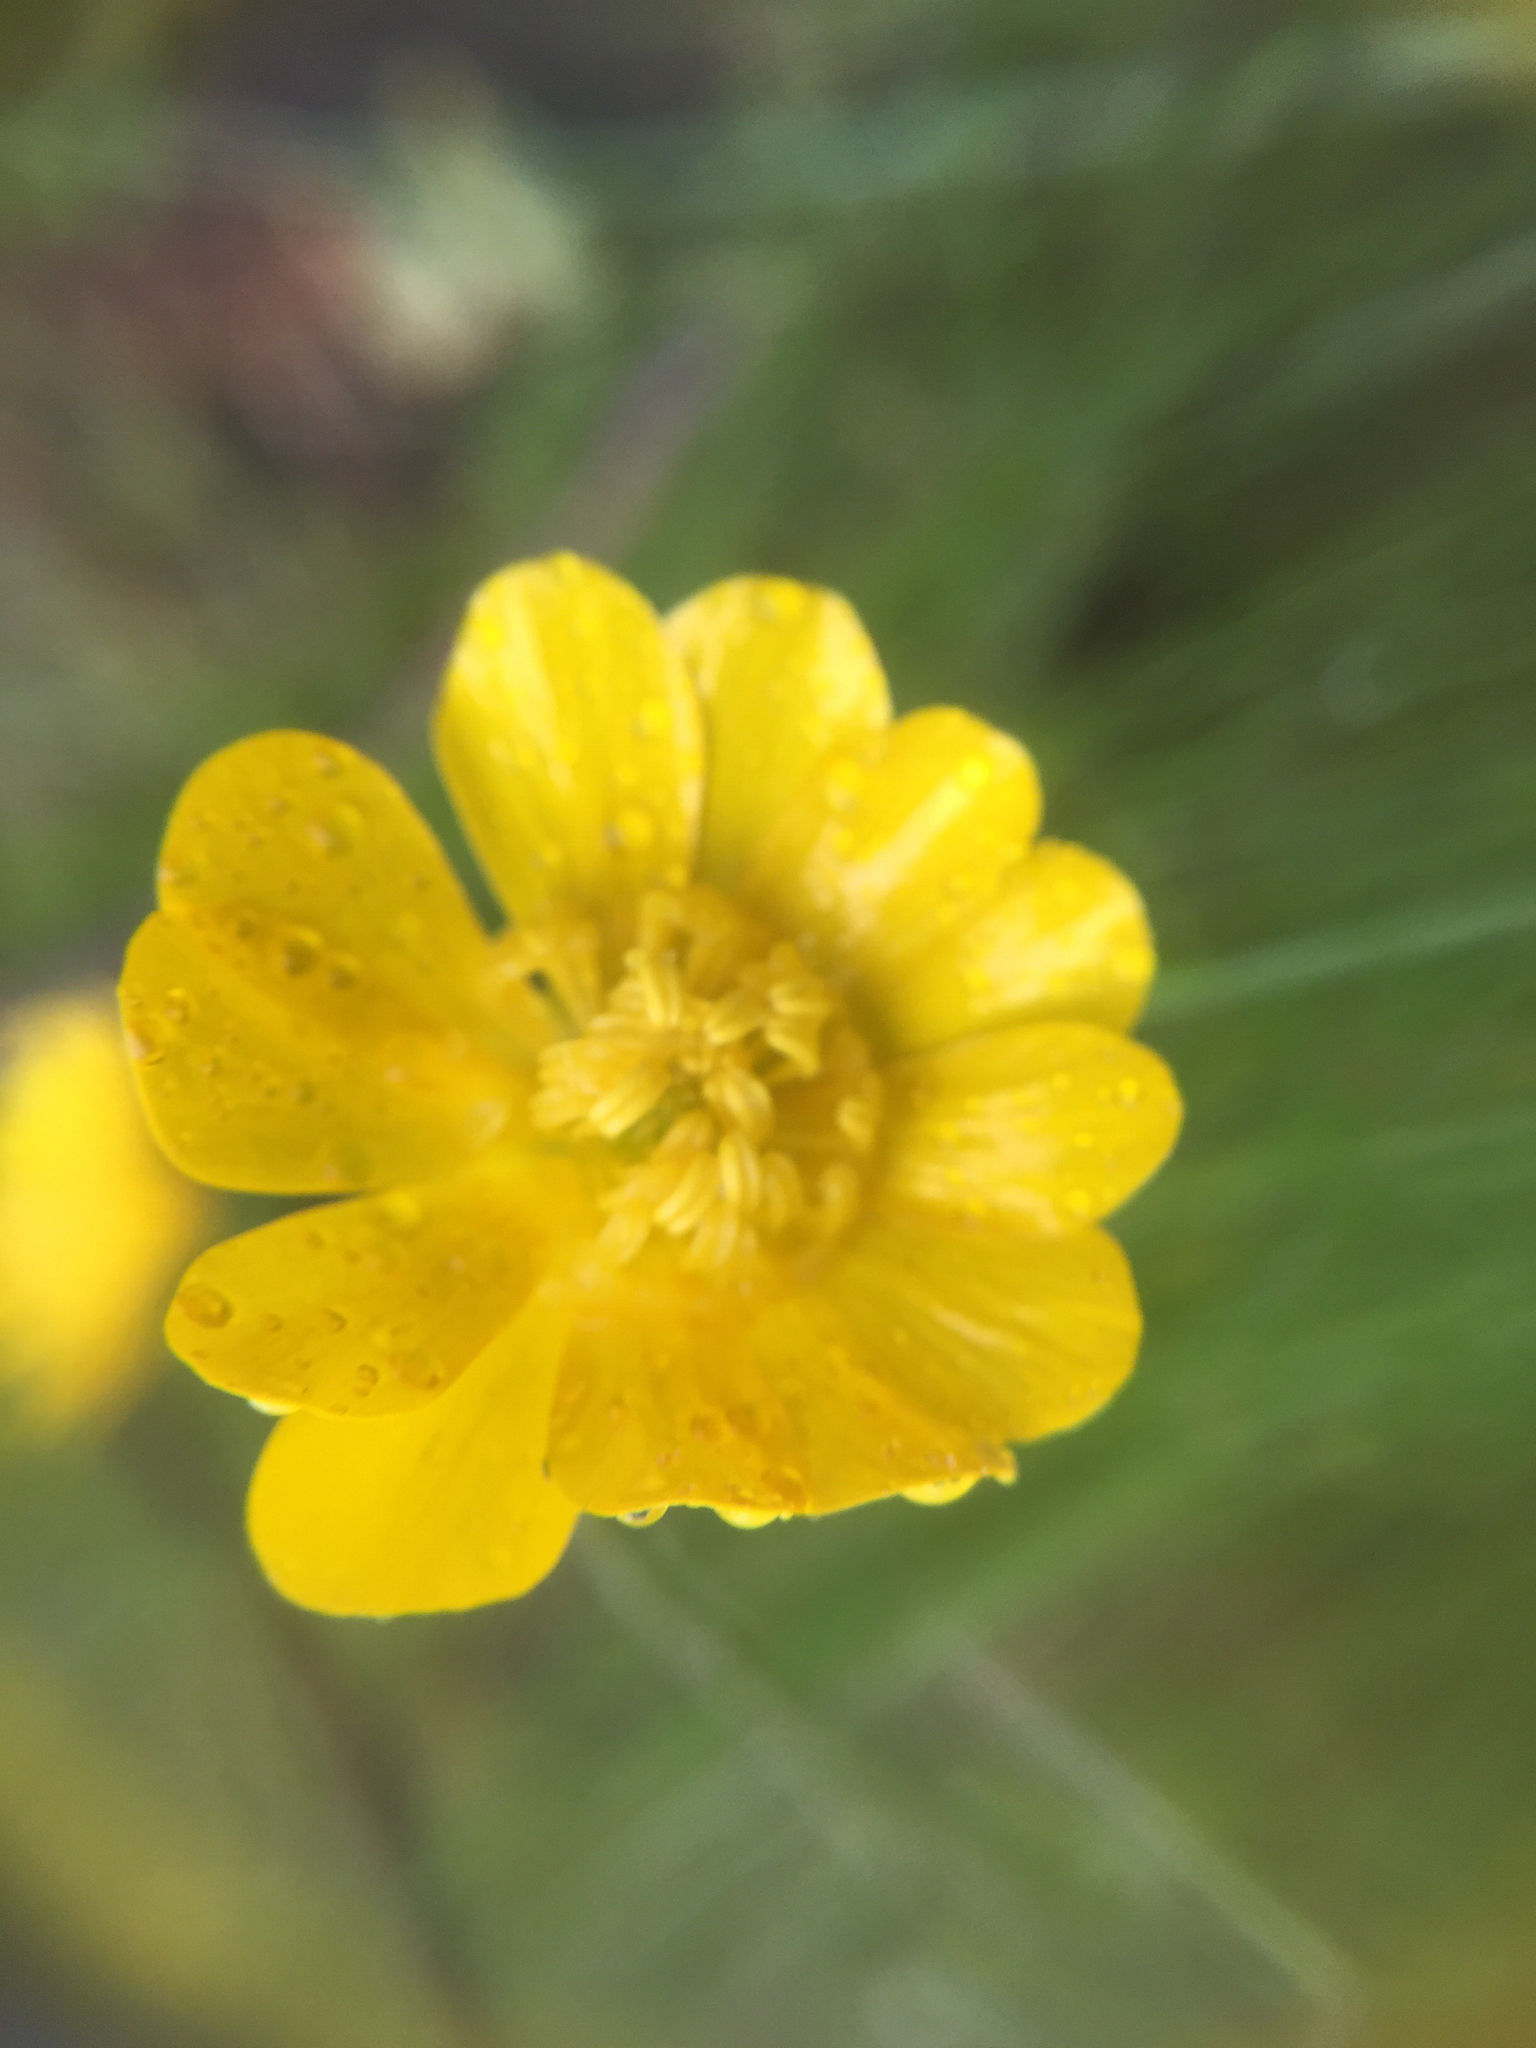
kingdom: Plantae
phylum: Tracheophyta
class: Magnoliopsida
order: Ranunculales
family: Ranunculaceae
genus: Ranunculus
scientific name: Ranunculus californicus
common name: California buttercup
